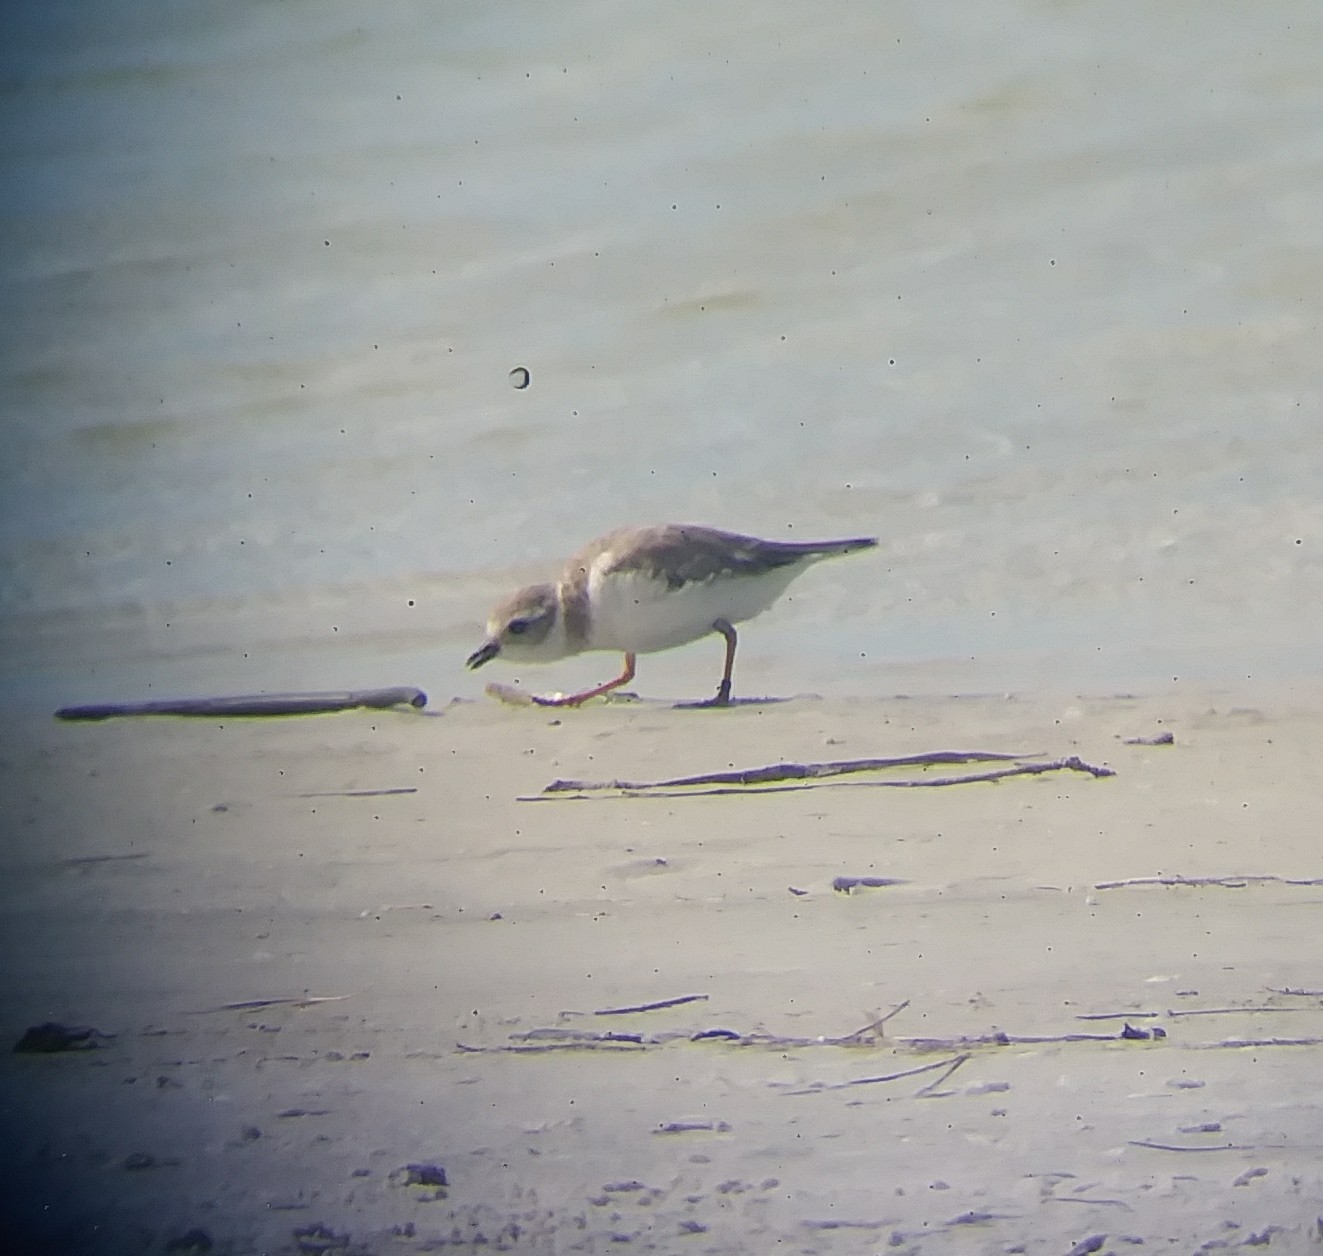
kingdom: Animalia
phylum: Chordata
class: Aves
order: Charadriiformes
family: Charadriidae
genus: Charadrius
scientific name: Charadrius melodus
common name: Piping plover
